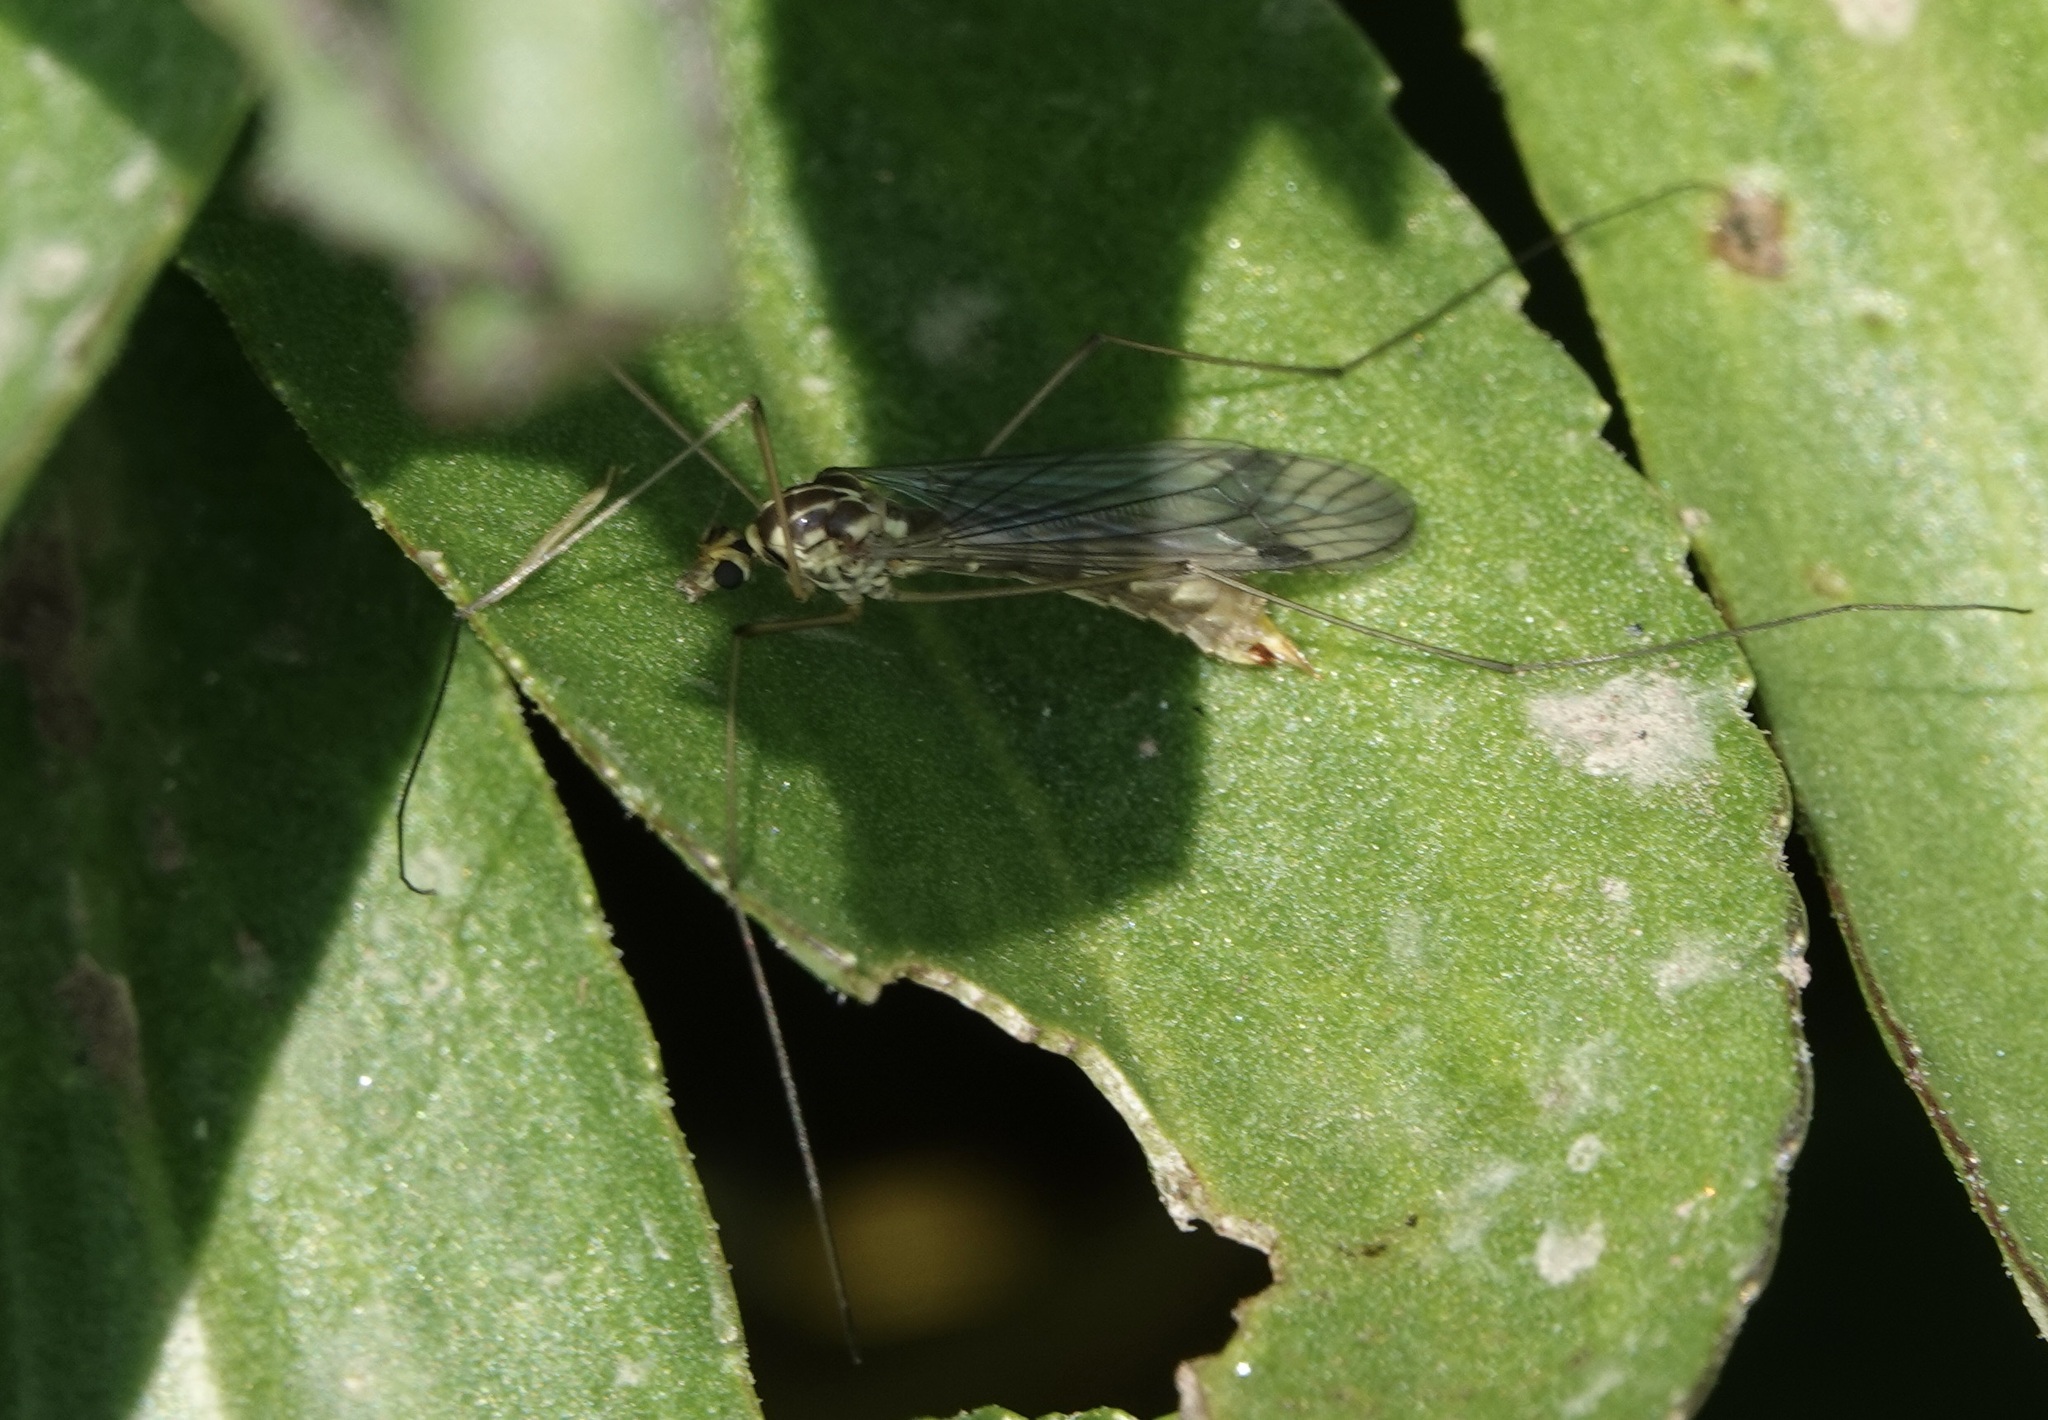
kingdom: Animalia
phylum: Arthropoda
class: Insecta
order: Diptera
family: Tipulidae
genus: Nephrotoma
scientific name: Nephrotoma quadrifaria
